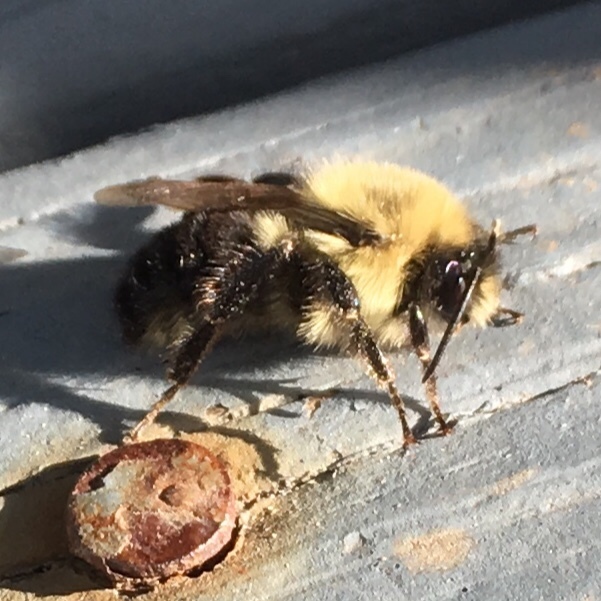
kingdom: Animalia
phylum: Arthropoda
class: Insecta
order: Hymenoptera
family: Apidae
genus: Bombus
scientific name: Bombus impatiens
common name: Common eastern bumble bee
